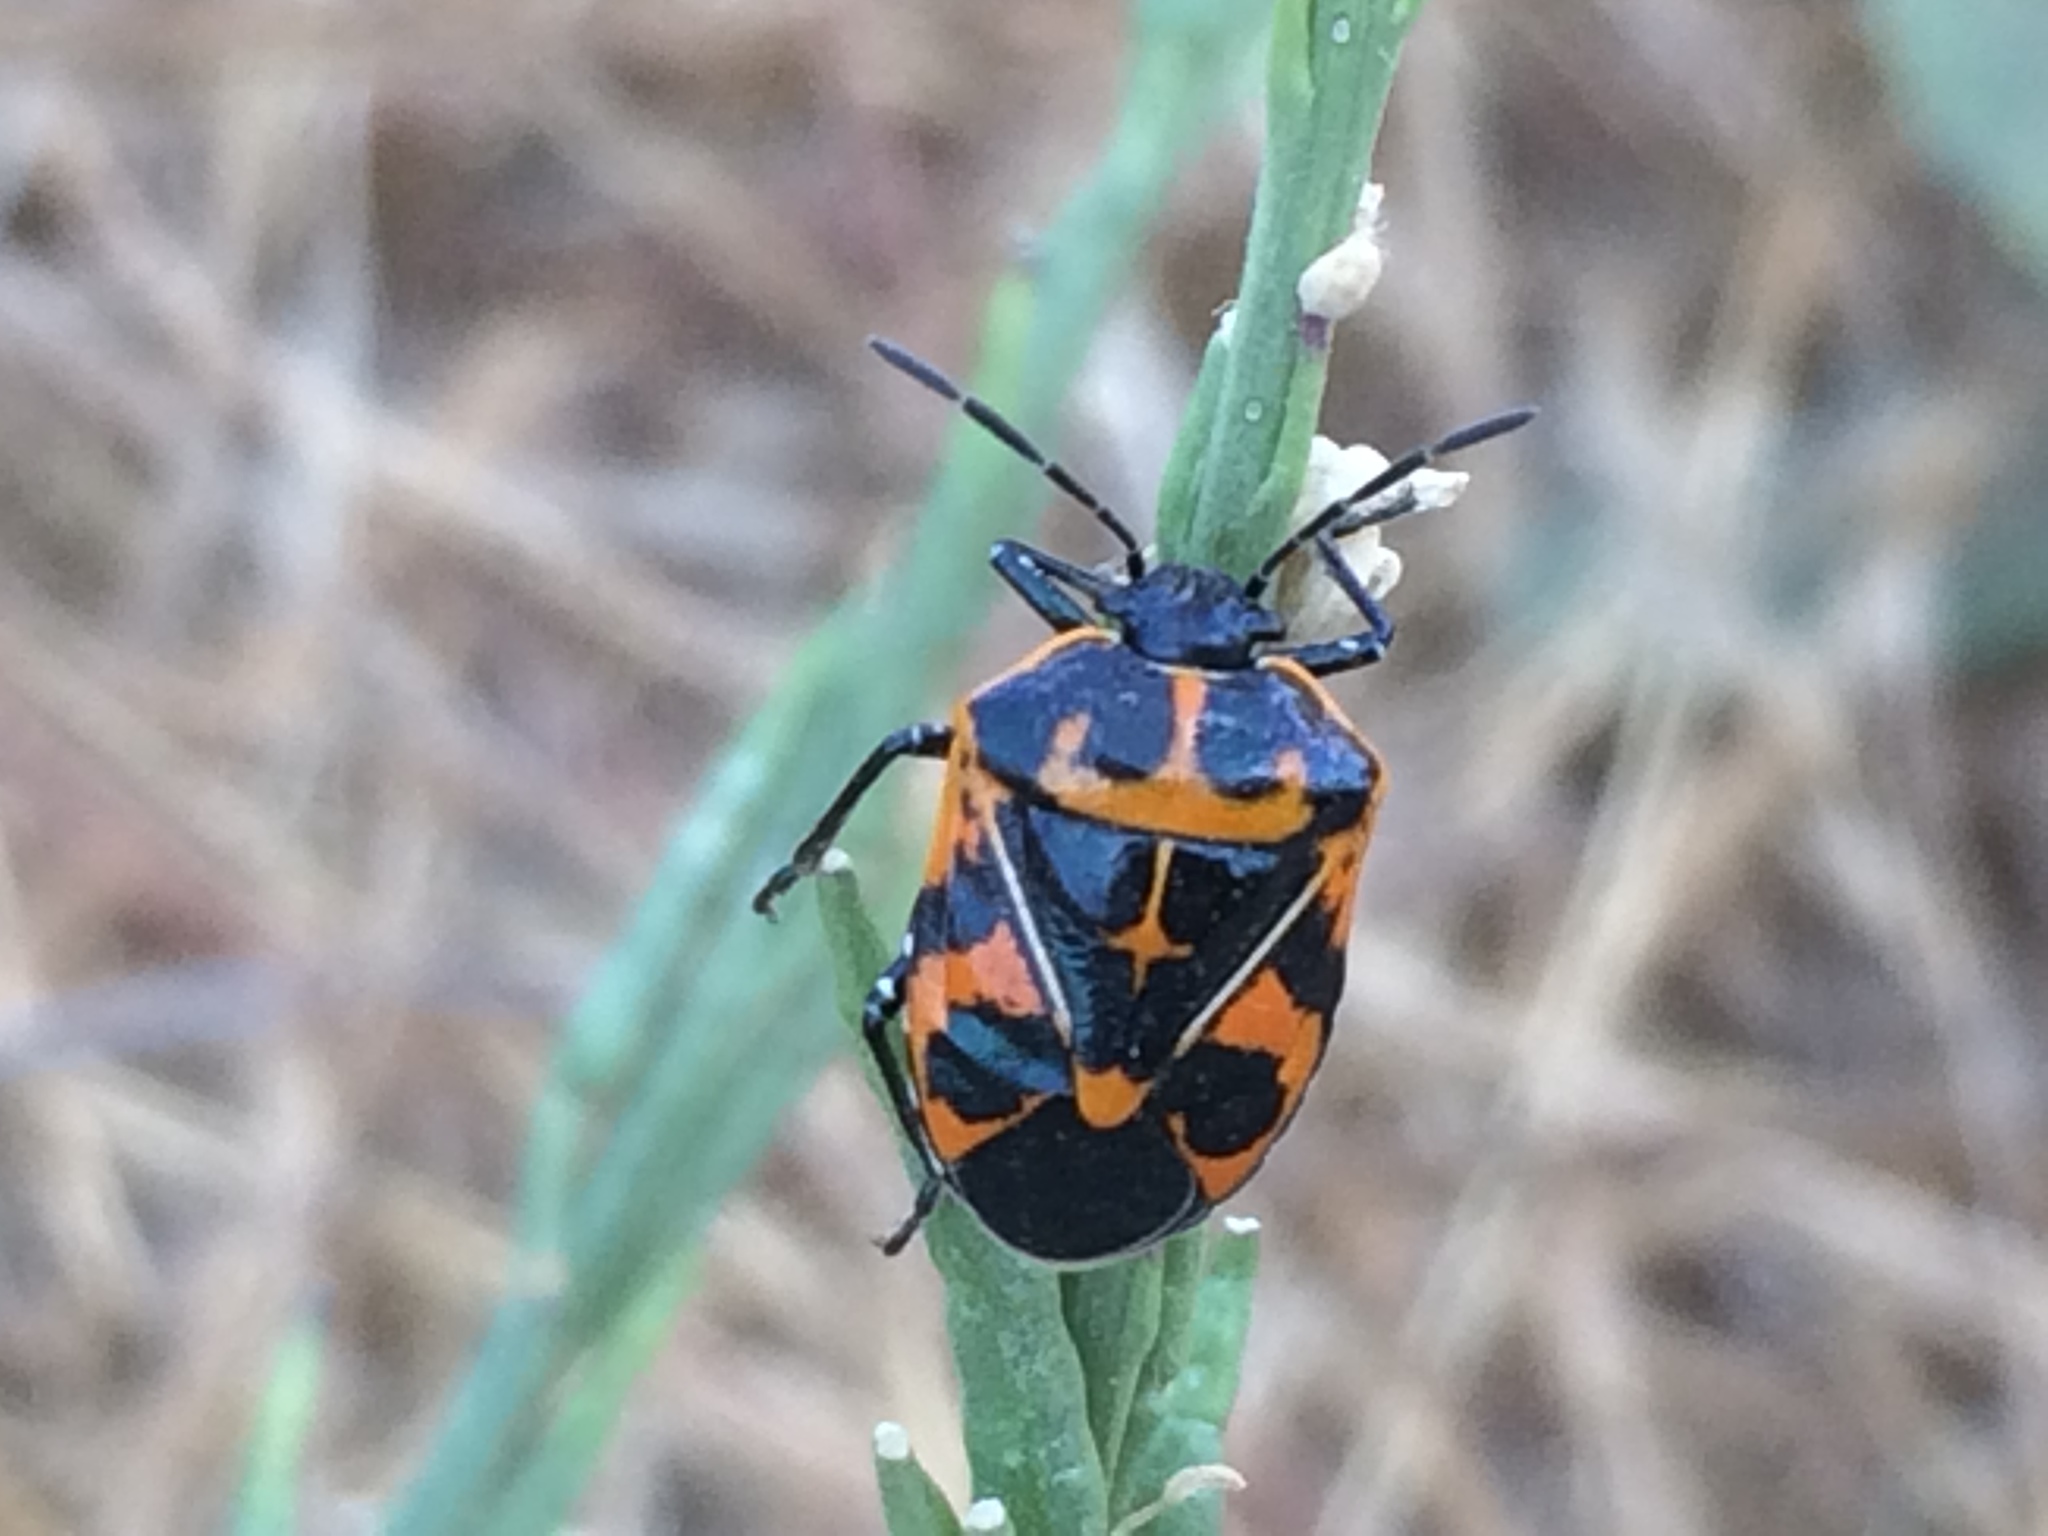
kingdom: Animalia
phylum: Arthropoda
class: Insecta
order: Hemiptera
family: Pentatomidae
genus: Murgantia
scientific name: Murgantia histrionica
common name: Harlequin bug
